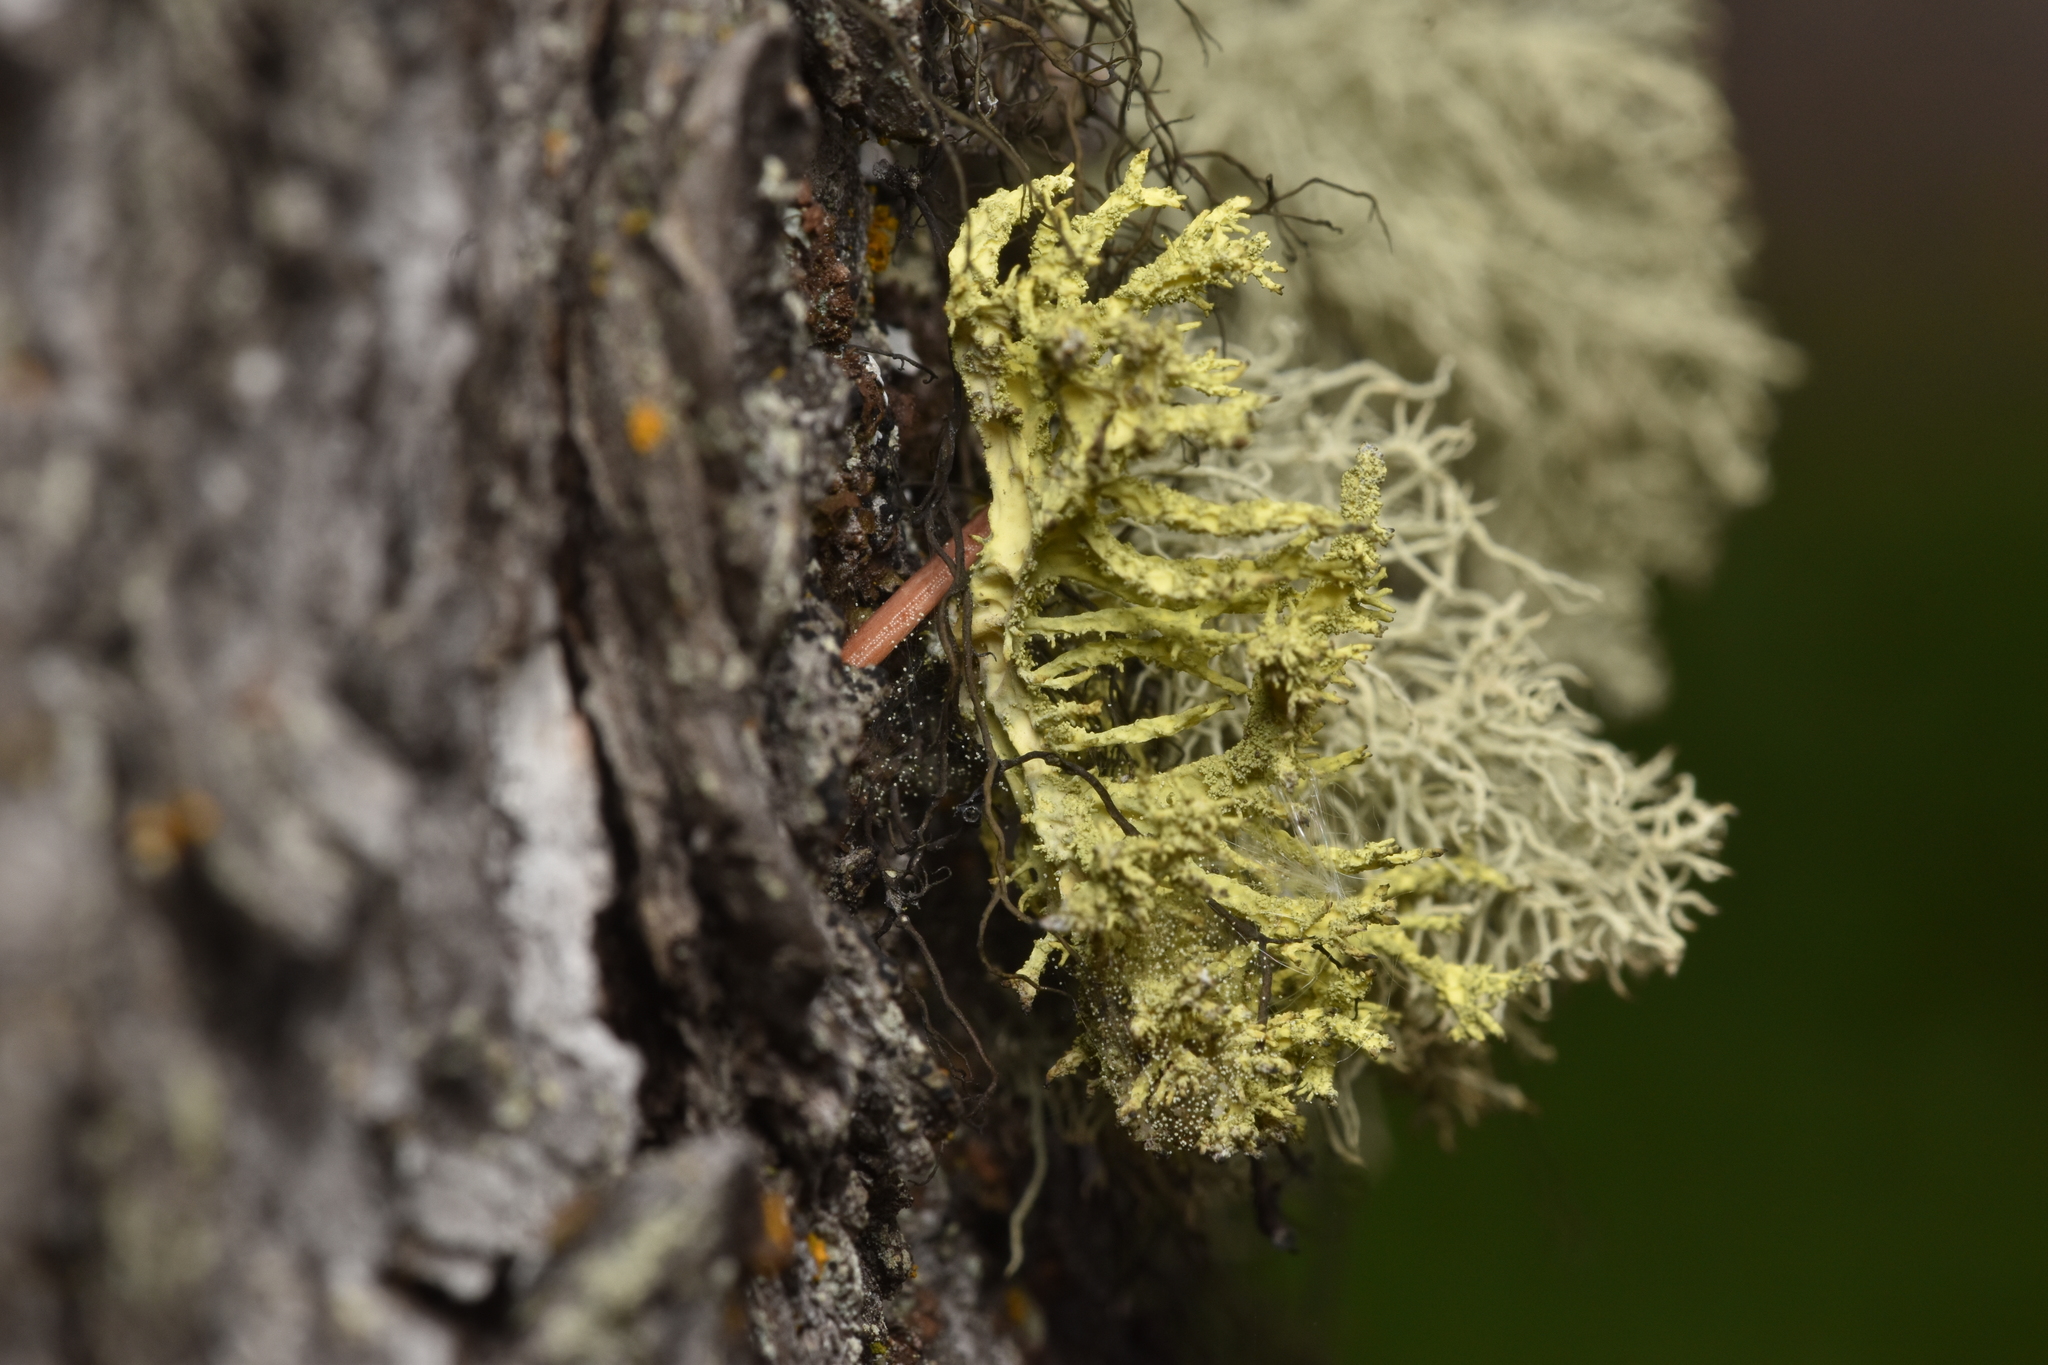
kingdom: Fungi
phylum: Ascomycota
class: Lecanoromycetes
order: Lecanorales
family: Parmeliaceae
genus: Letharia
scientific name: Letharia vulpina
